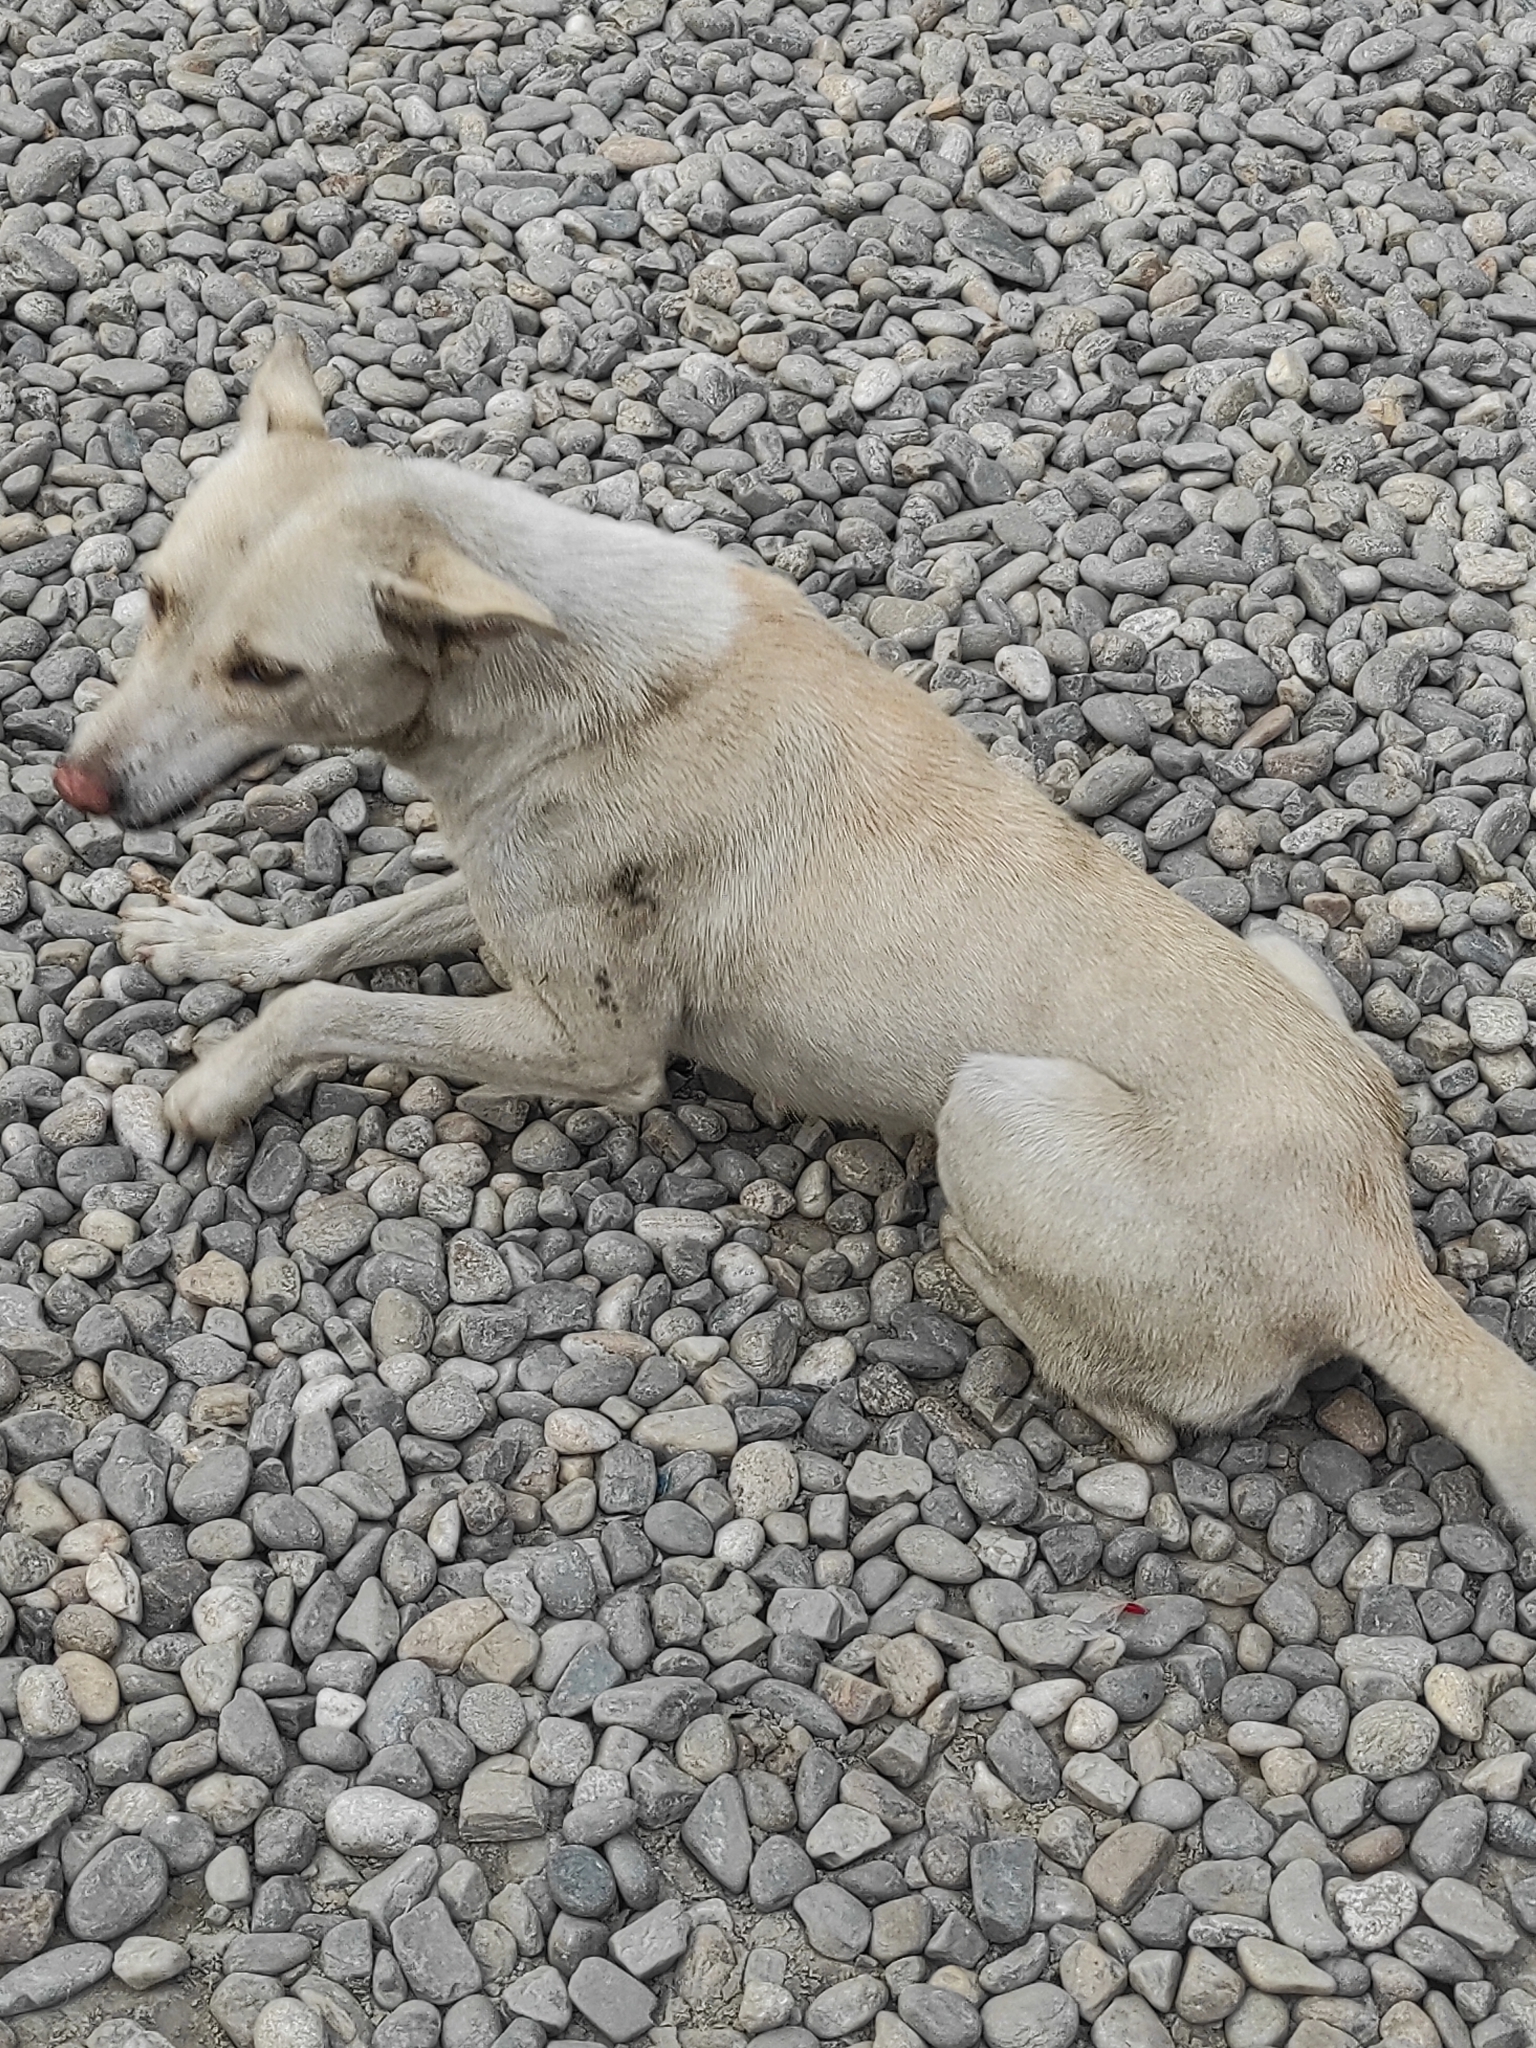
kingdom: Animalia
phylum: Chordata
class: Mammalia
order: Carnivora
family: Canidae
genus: Canis
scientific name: Canis lupus
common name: Gray wolf
